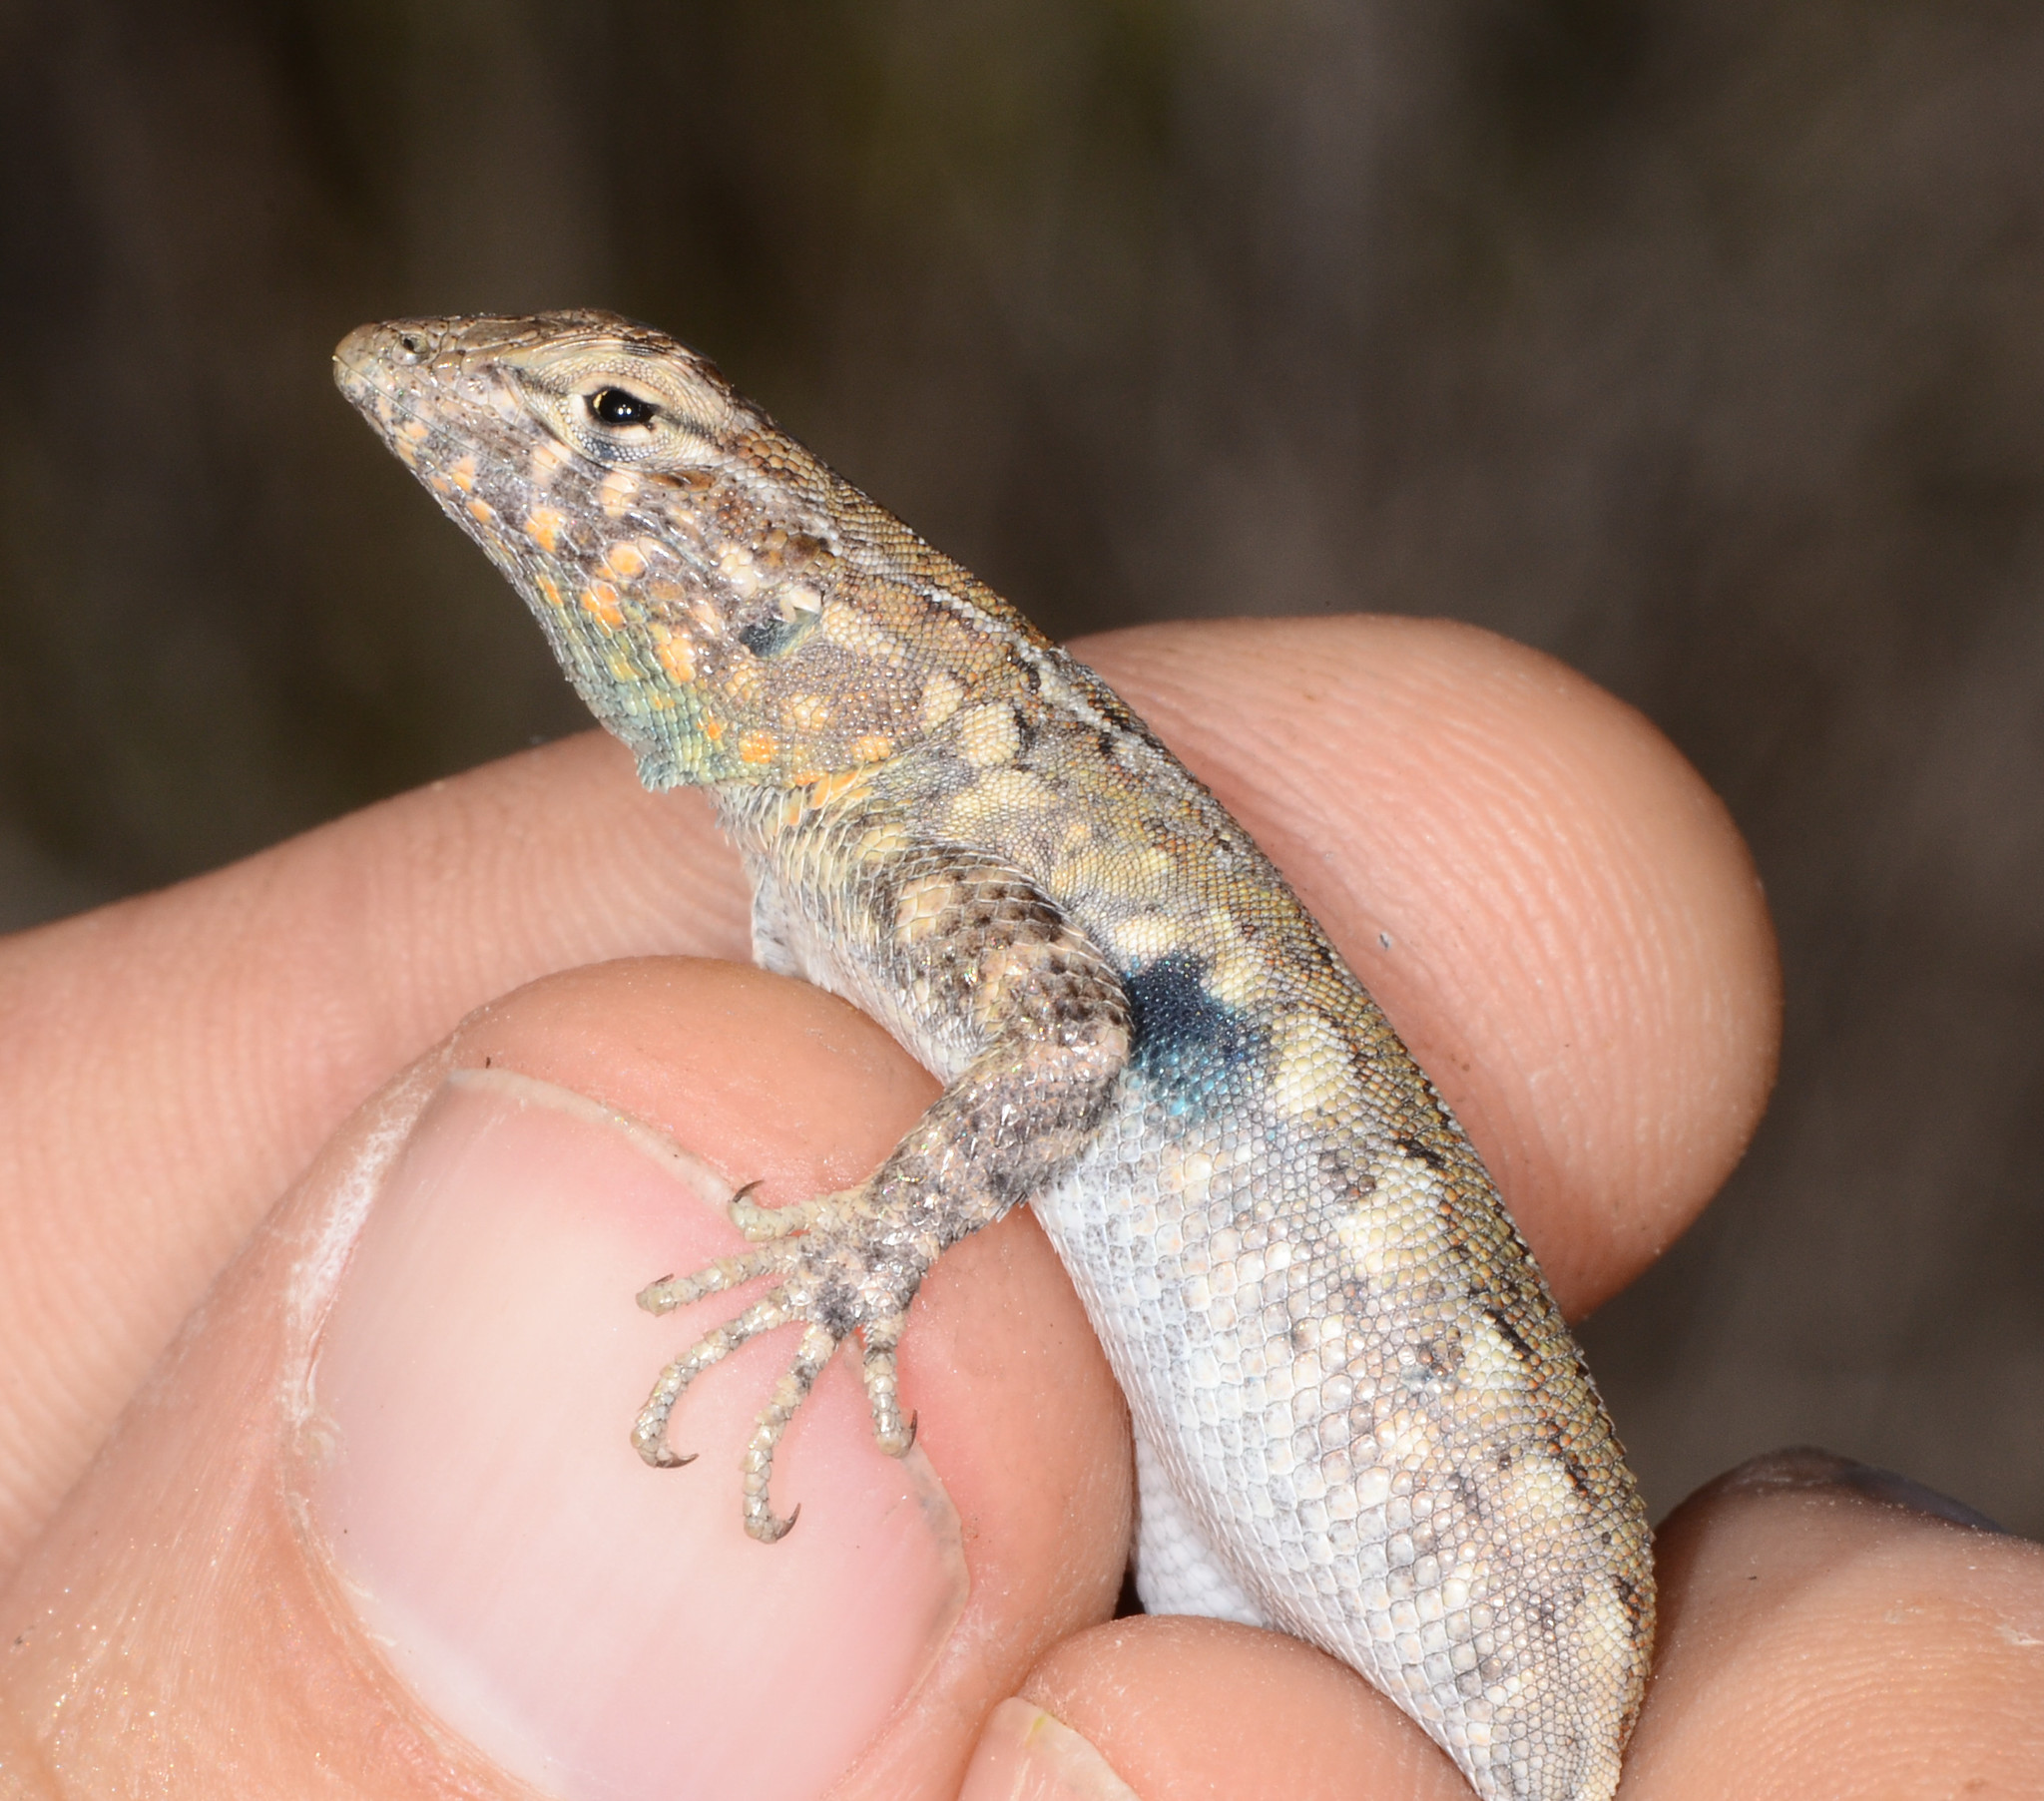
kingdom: Animalia
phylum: Chordata
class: Squamata
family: Phrynosomatidae
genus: Uta
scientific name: Uta stansburiana
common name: Side-blotched lizard
